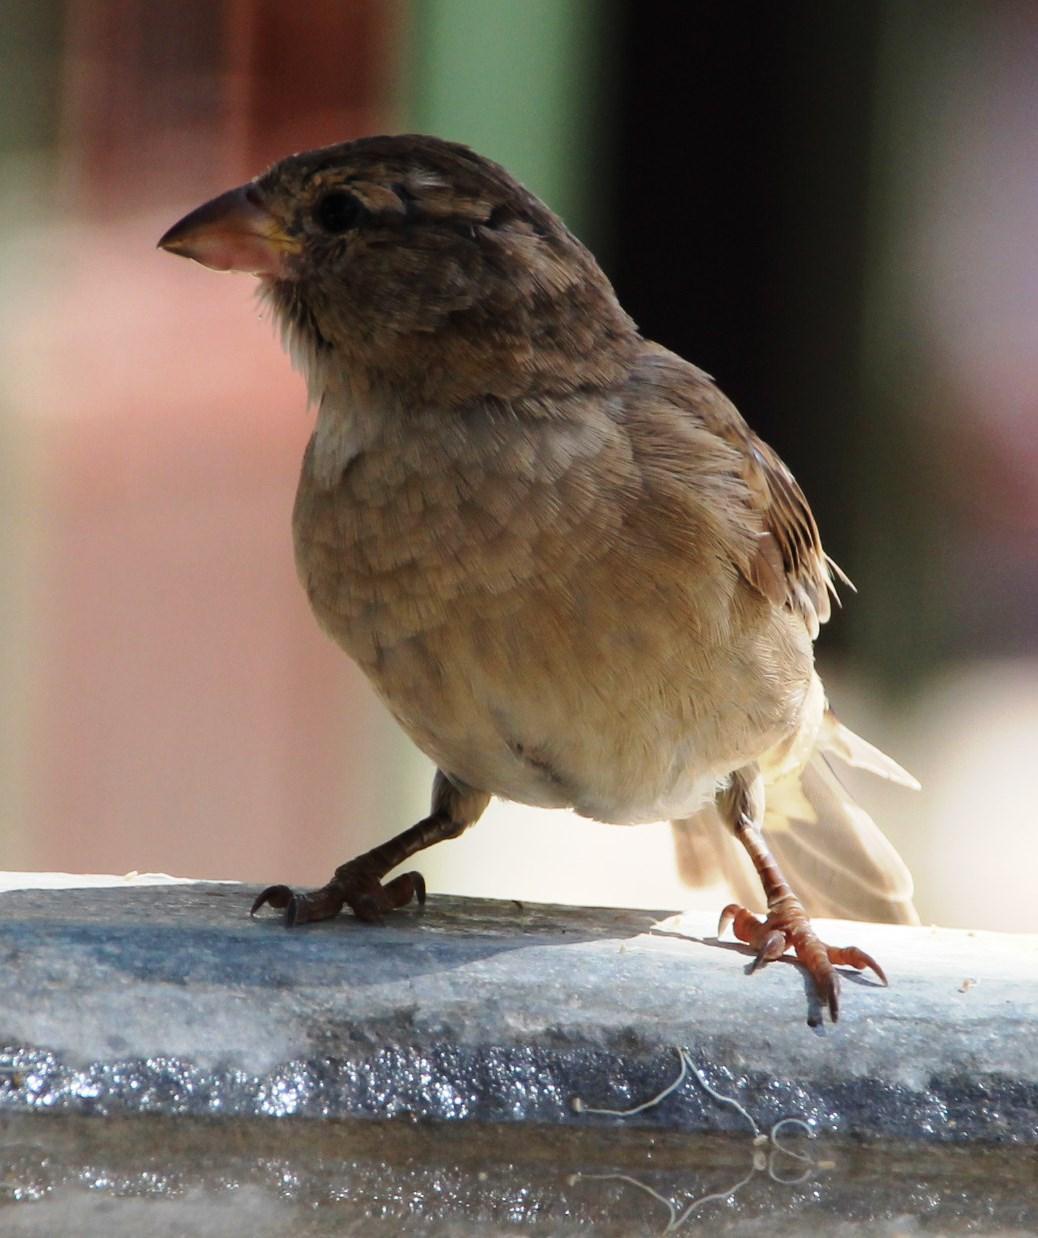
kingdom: Animalia
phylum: Chordata
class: Aves
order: Passeriformes
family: Passeridae
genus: Passer
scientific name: Passer domesticus
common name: House sparrow
